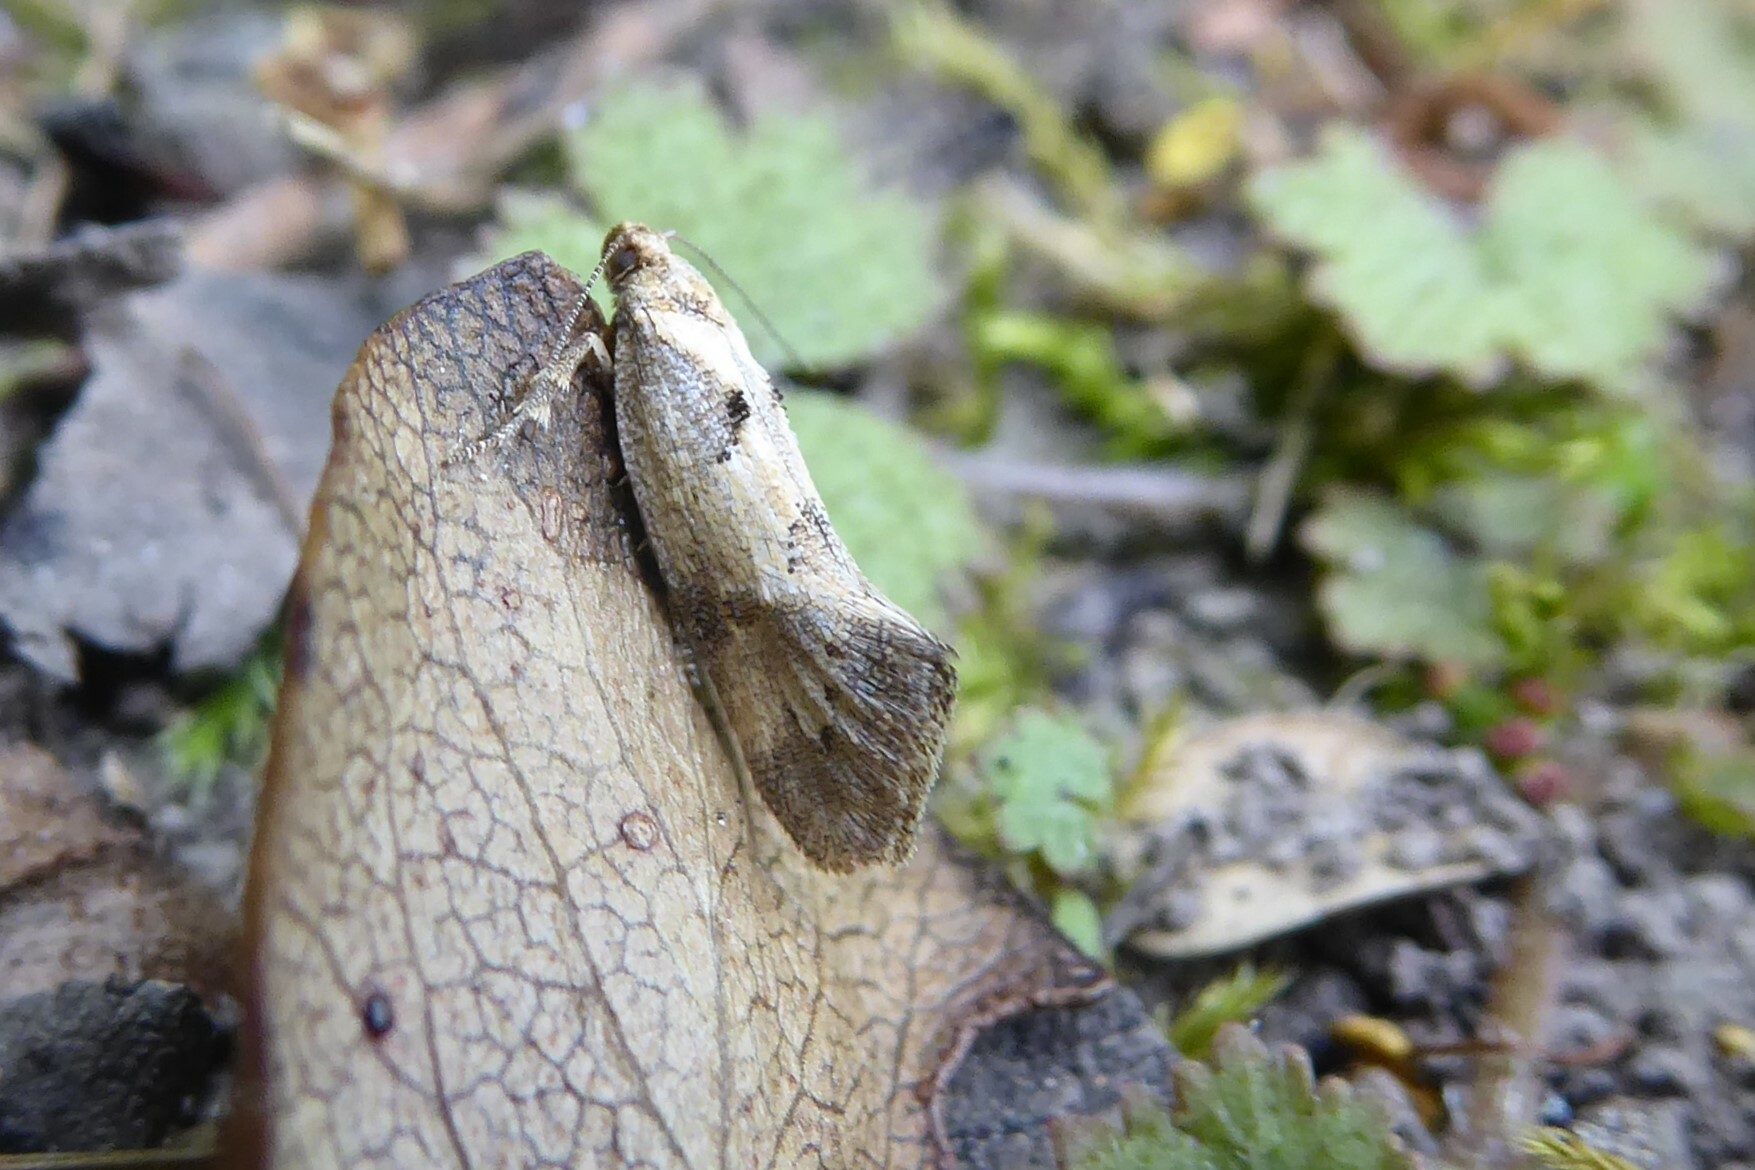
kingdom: Animalia
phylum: Arthropoda
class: Insecta
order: Lepidoptera
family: Oecophoridae
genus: Tingena
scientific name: Tingena brachyacma
